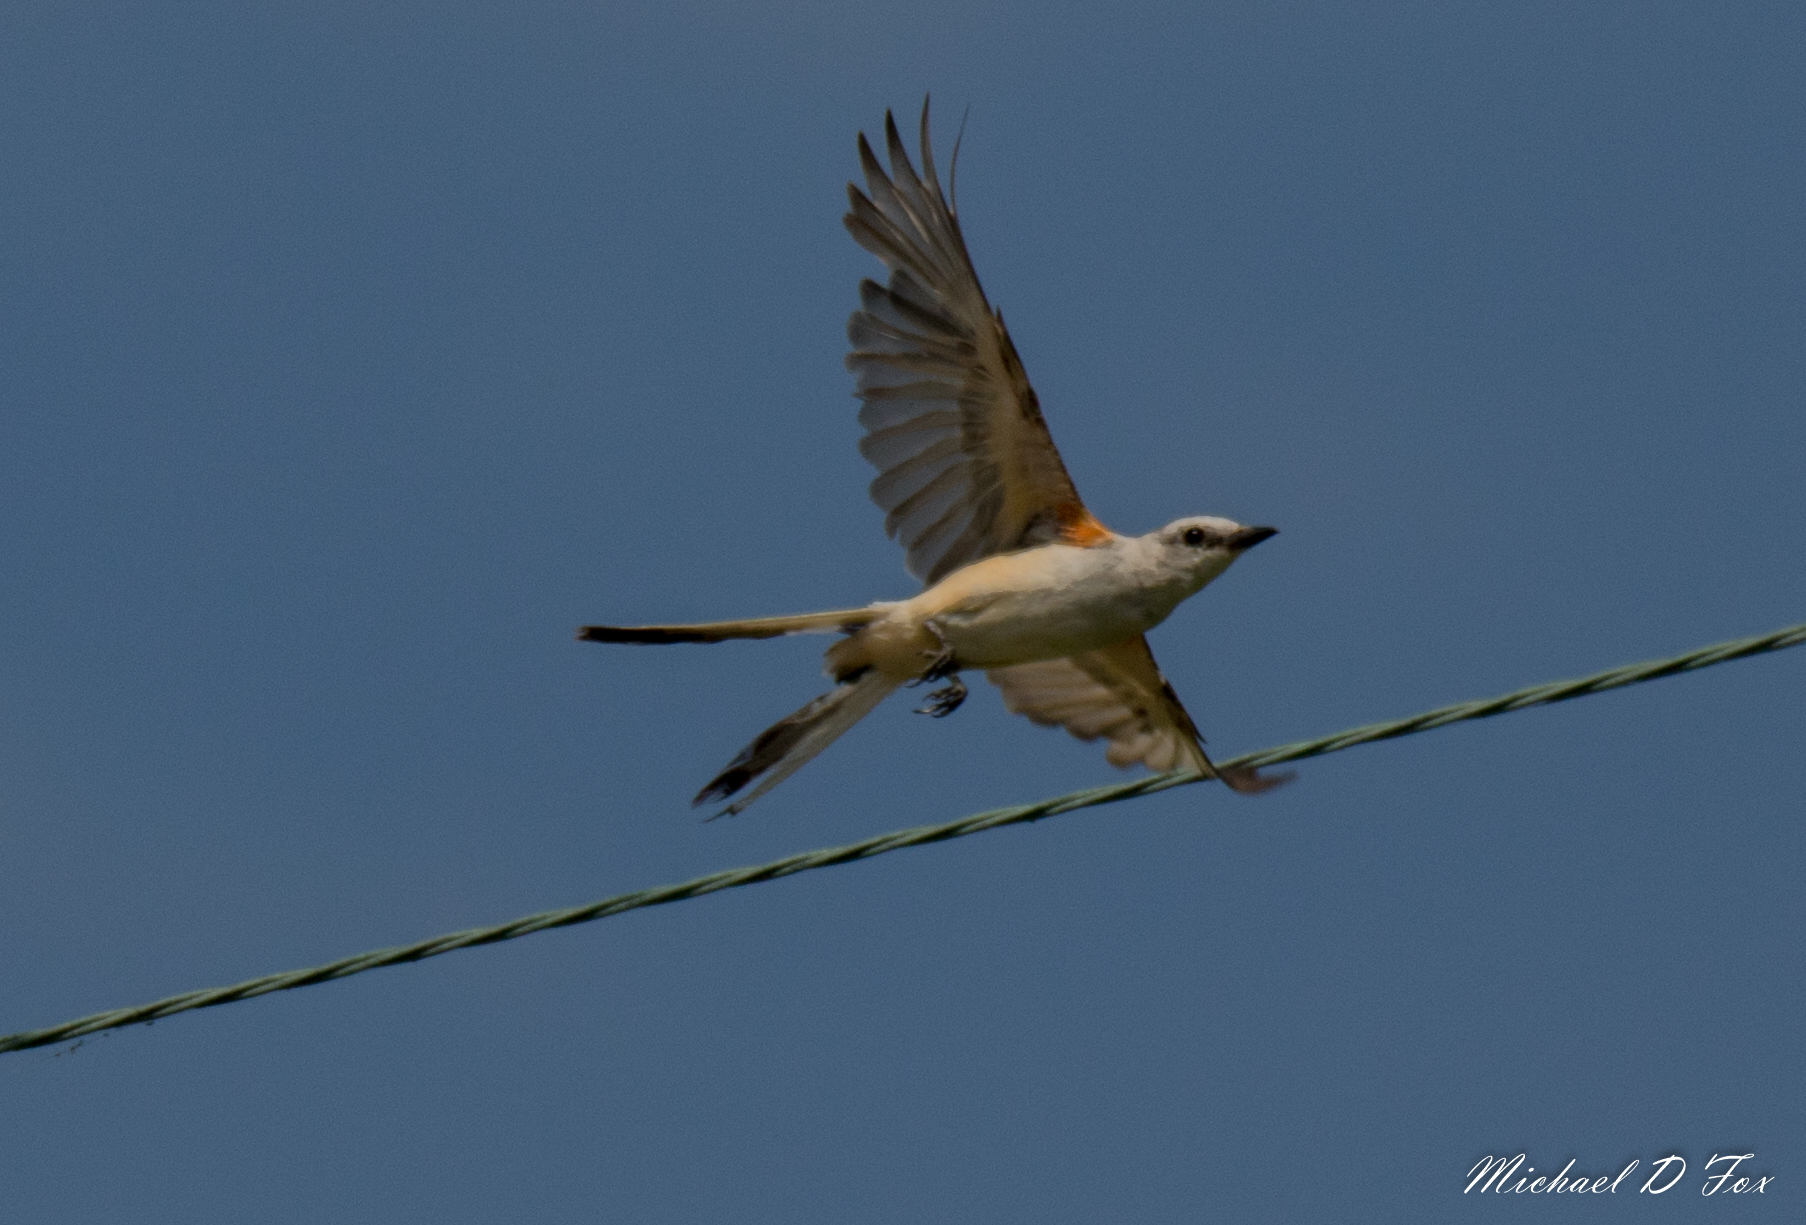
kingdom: Animalia
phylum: Chordata
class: Aves
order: Passeriformes
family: Tyrannidae
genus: Tyrannus
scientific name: Tyrannus forficatus
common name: Scissor-tailed flycatcher
